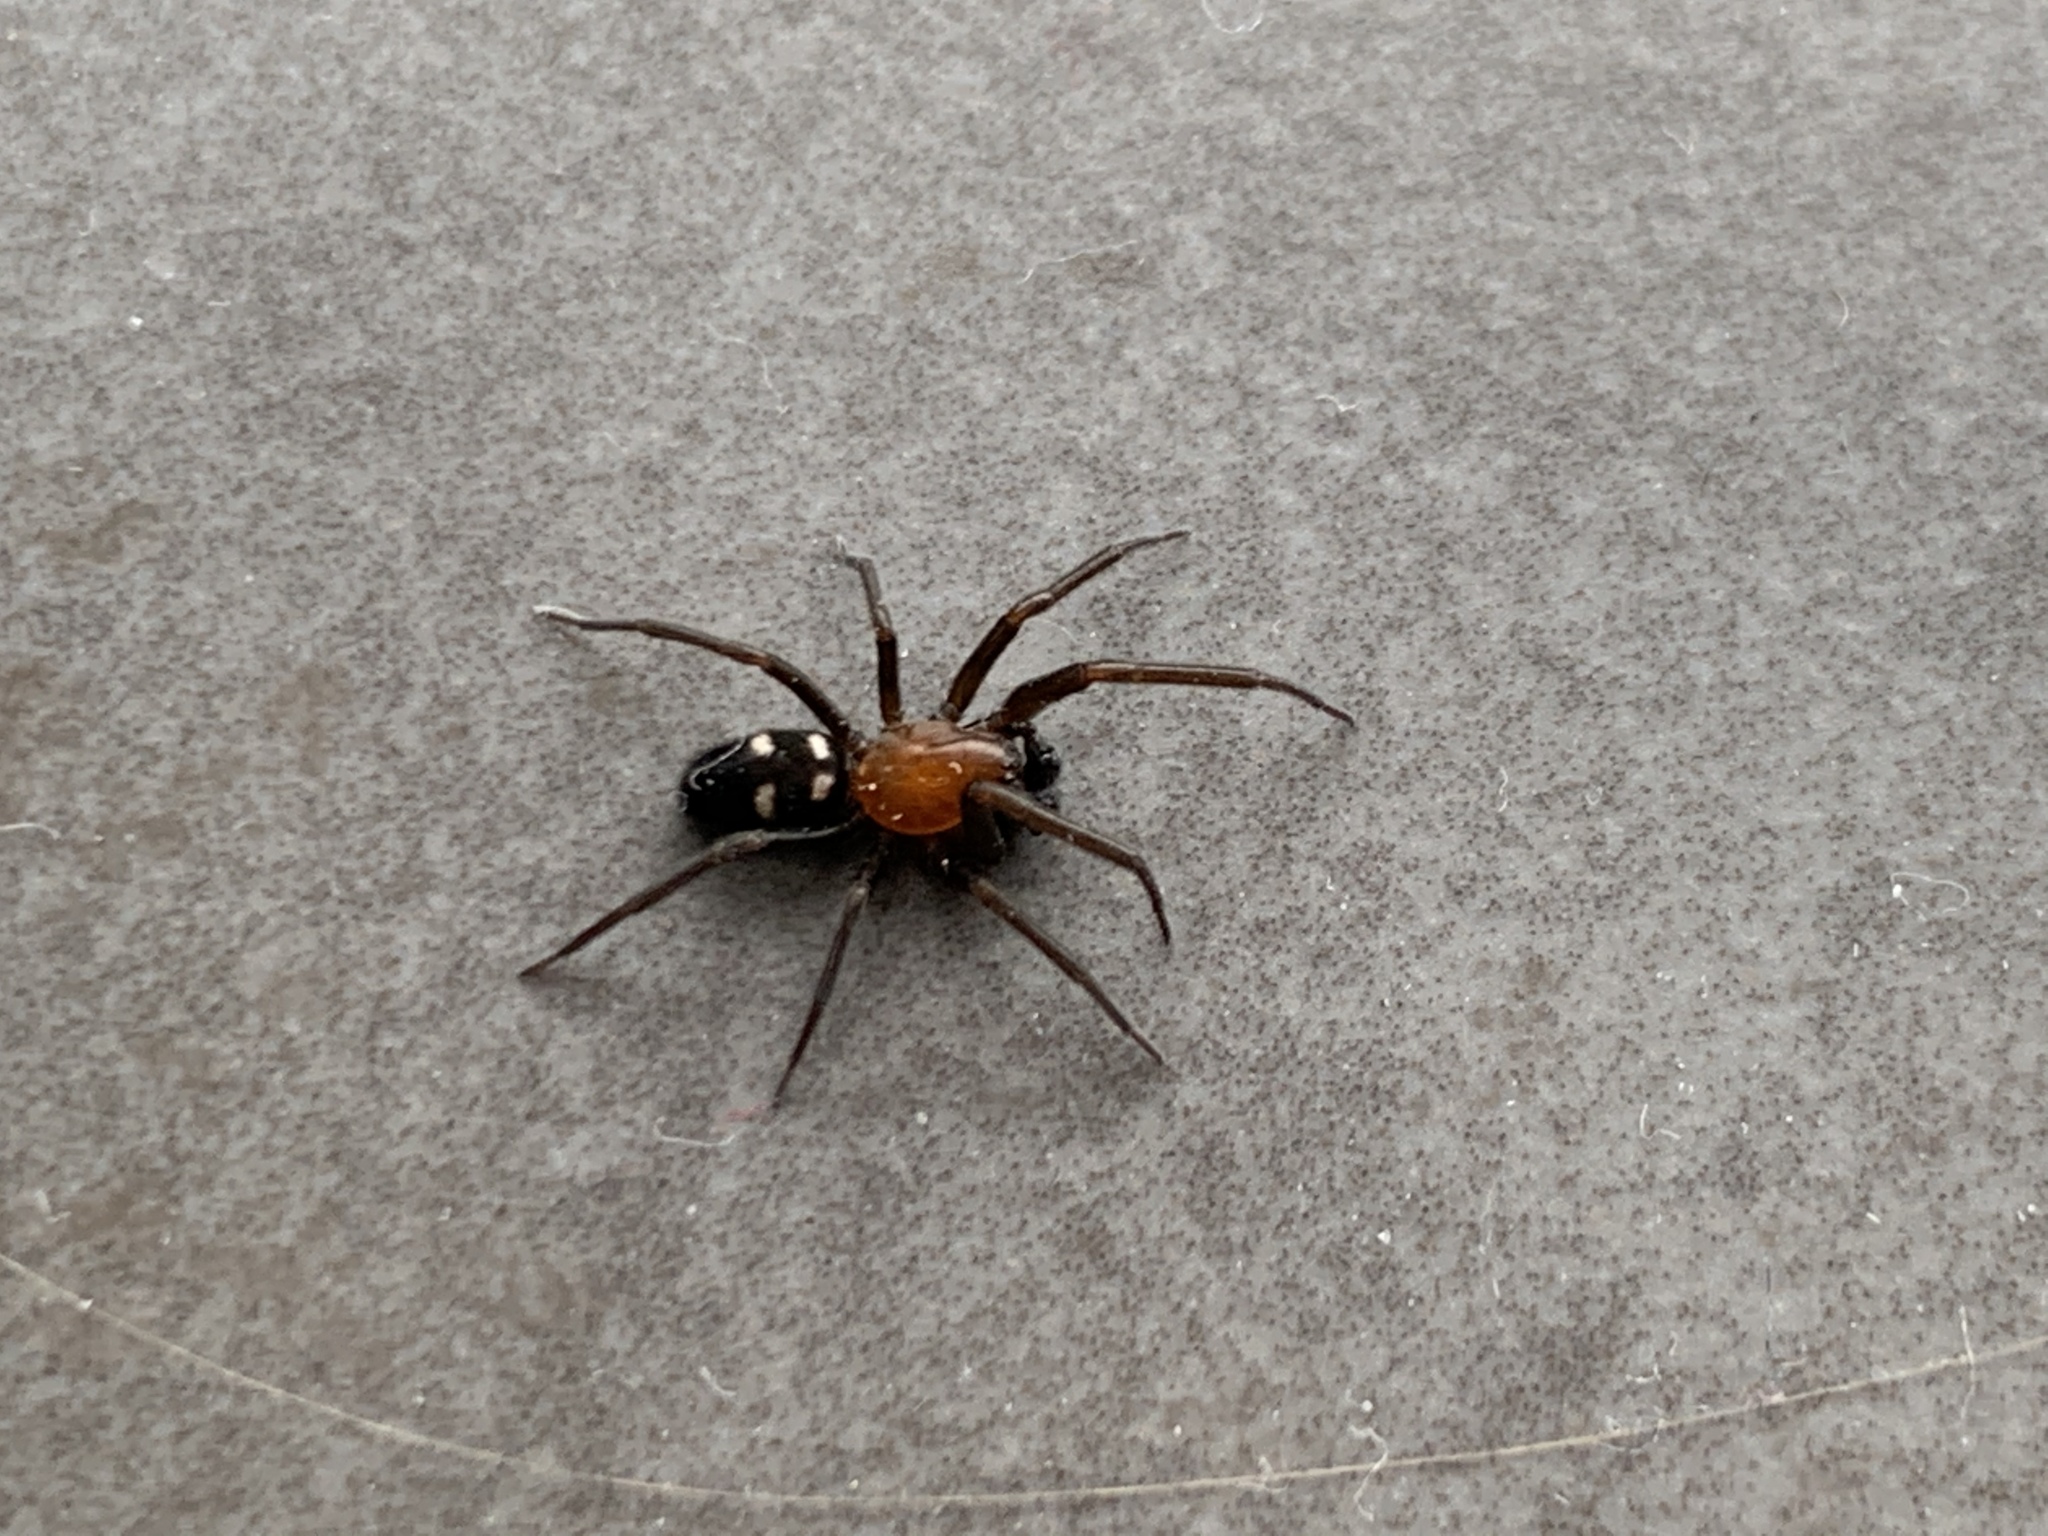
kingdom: Animalia
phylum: Arthropoda
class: Arachnida
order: Araneae
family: Titanoecidae
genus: Titanoeca
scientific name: Titanoeca quadriguttata
